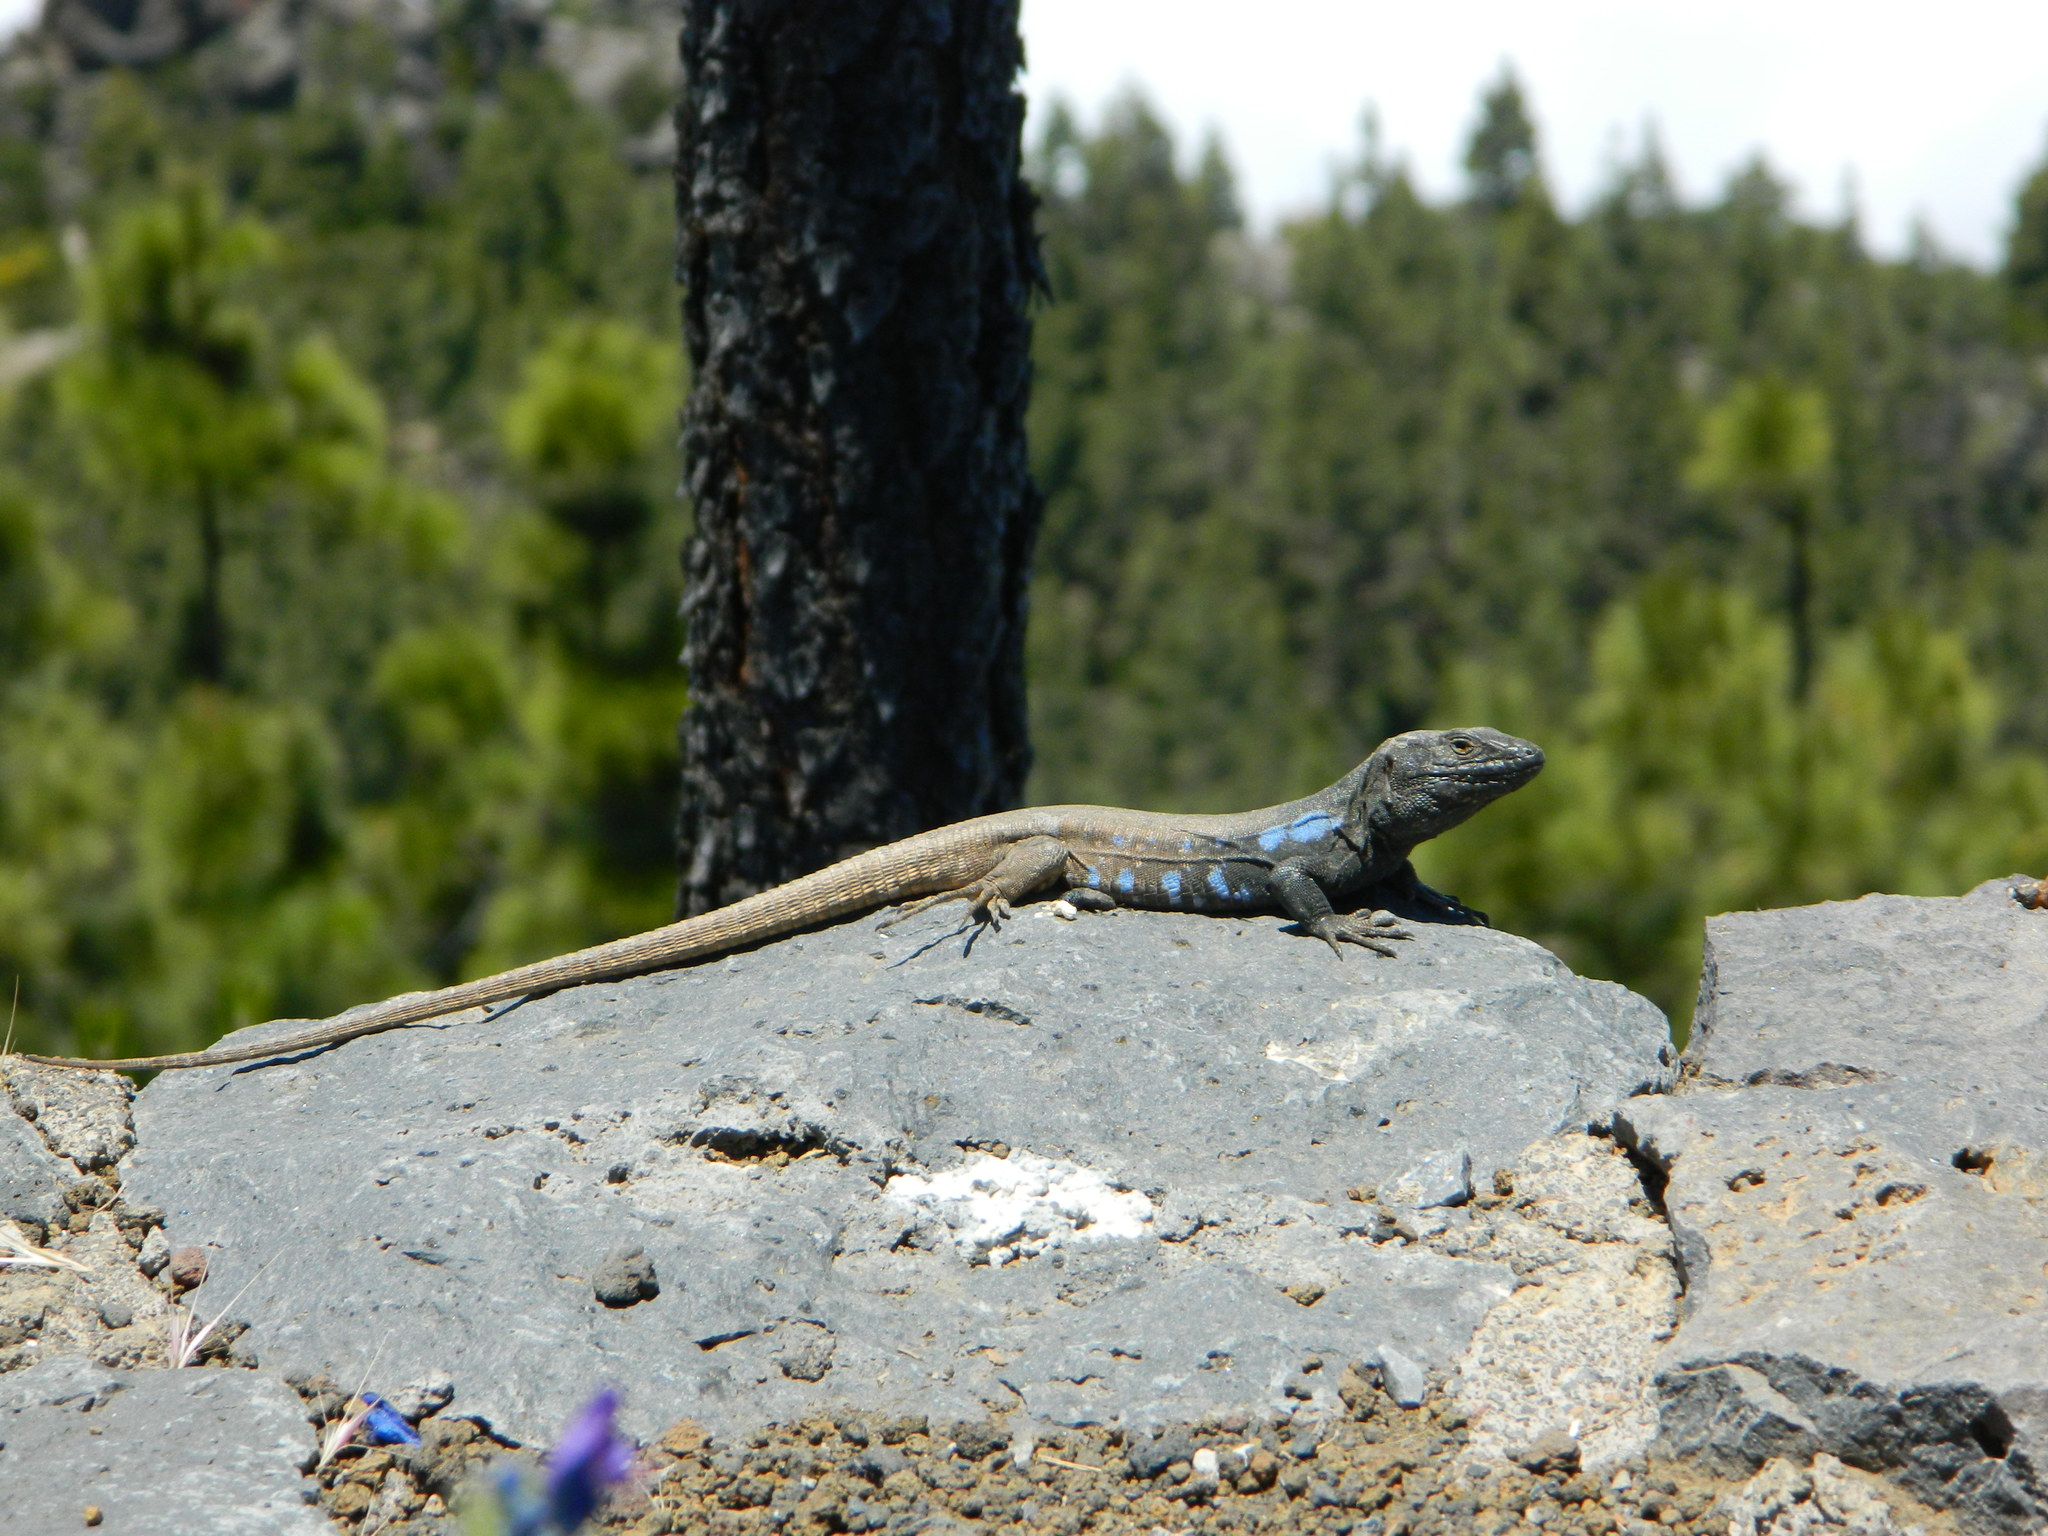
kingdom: Animalia
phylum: Chordata
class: Squamata
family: Lacertidae
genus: Gallotia
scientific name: Gallotia galloti
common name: Gallot's lizard
